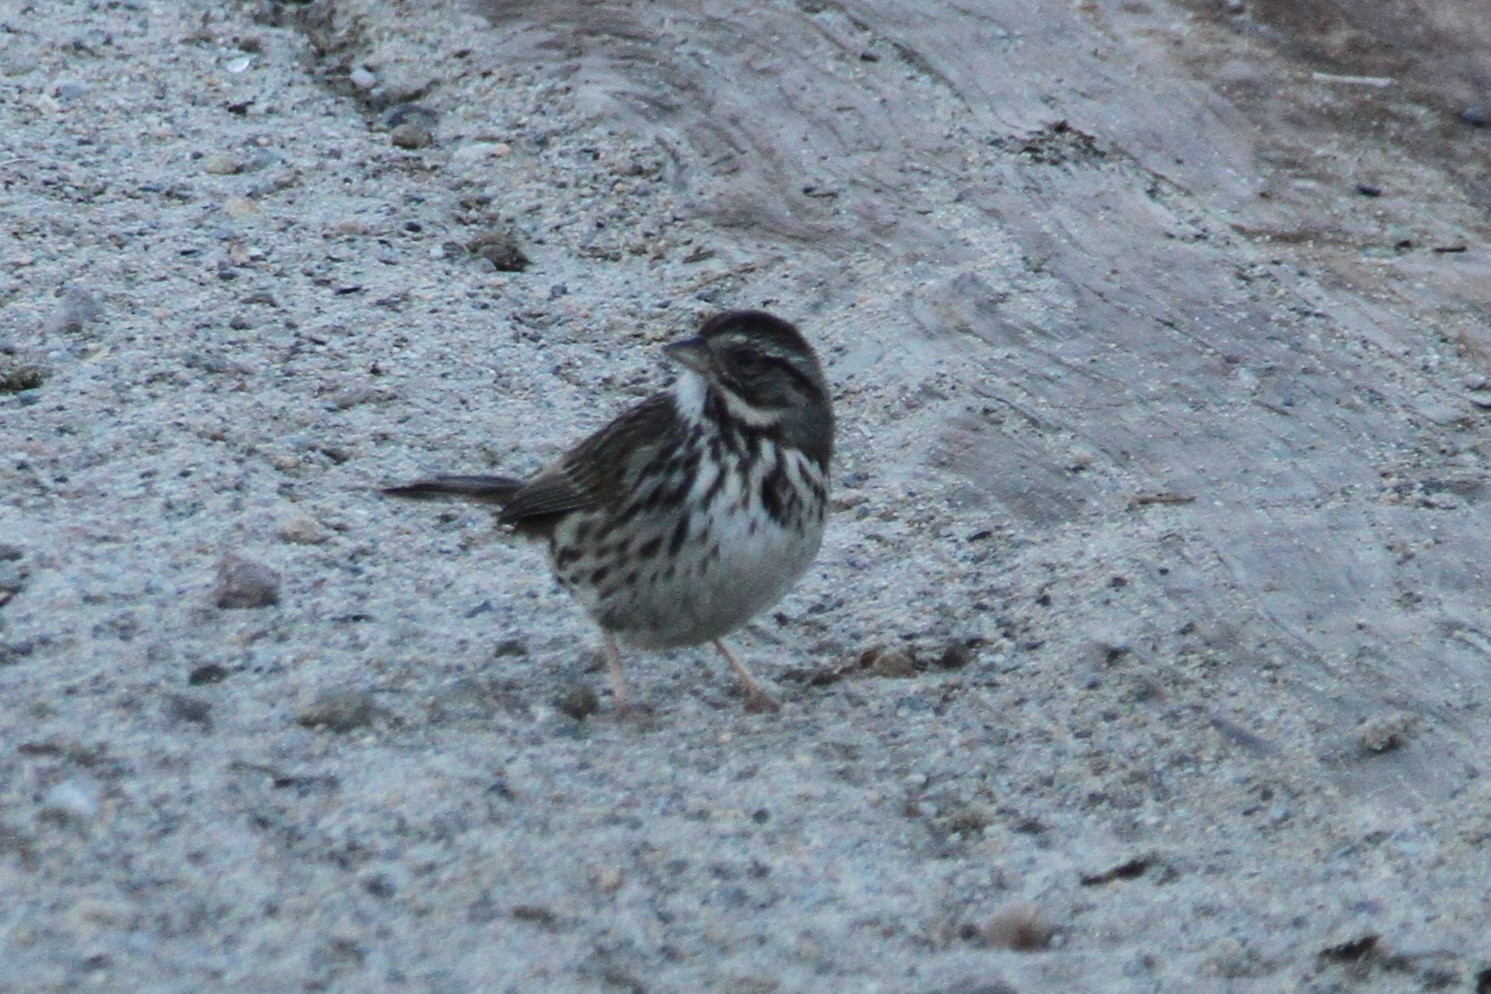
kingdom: Animalia
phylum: Chordata
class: Aves
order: Passeriformes
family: Passerellidae
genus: Melospiza
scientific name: Melospiza melodia
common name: Song sparrow
